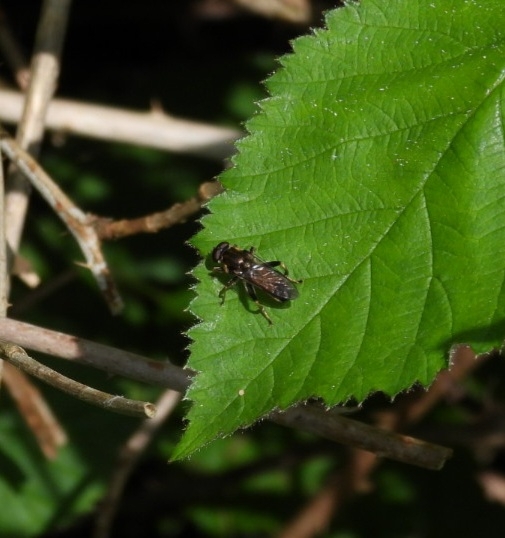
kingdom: Animalia
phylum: Arthropoda
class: Insecta
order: Diptera
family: Syrphidae
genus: Xylota
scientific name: Xylota segnis
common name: Brown-toed forest fly
